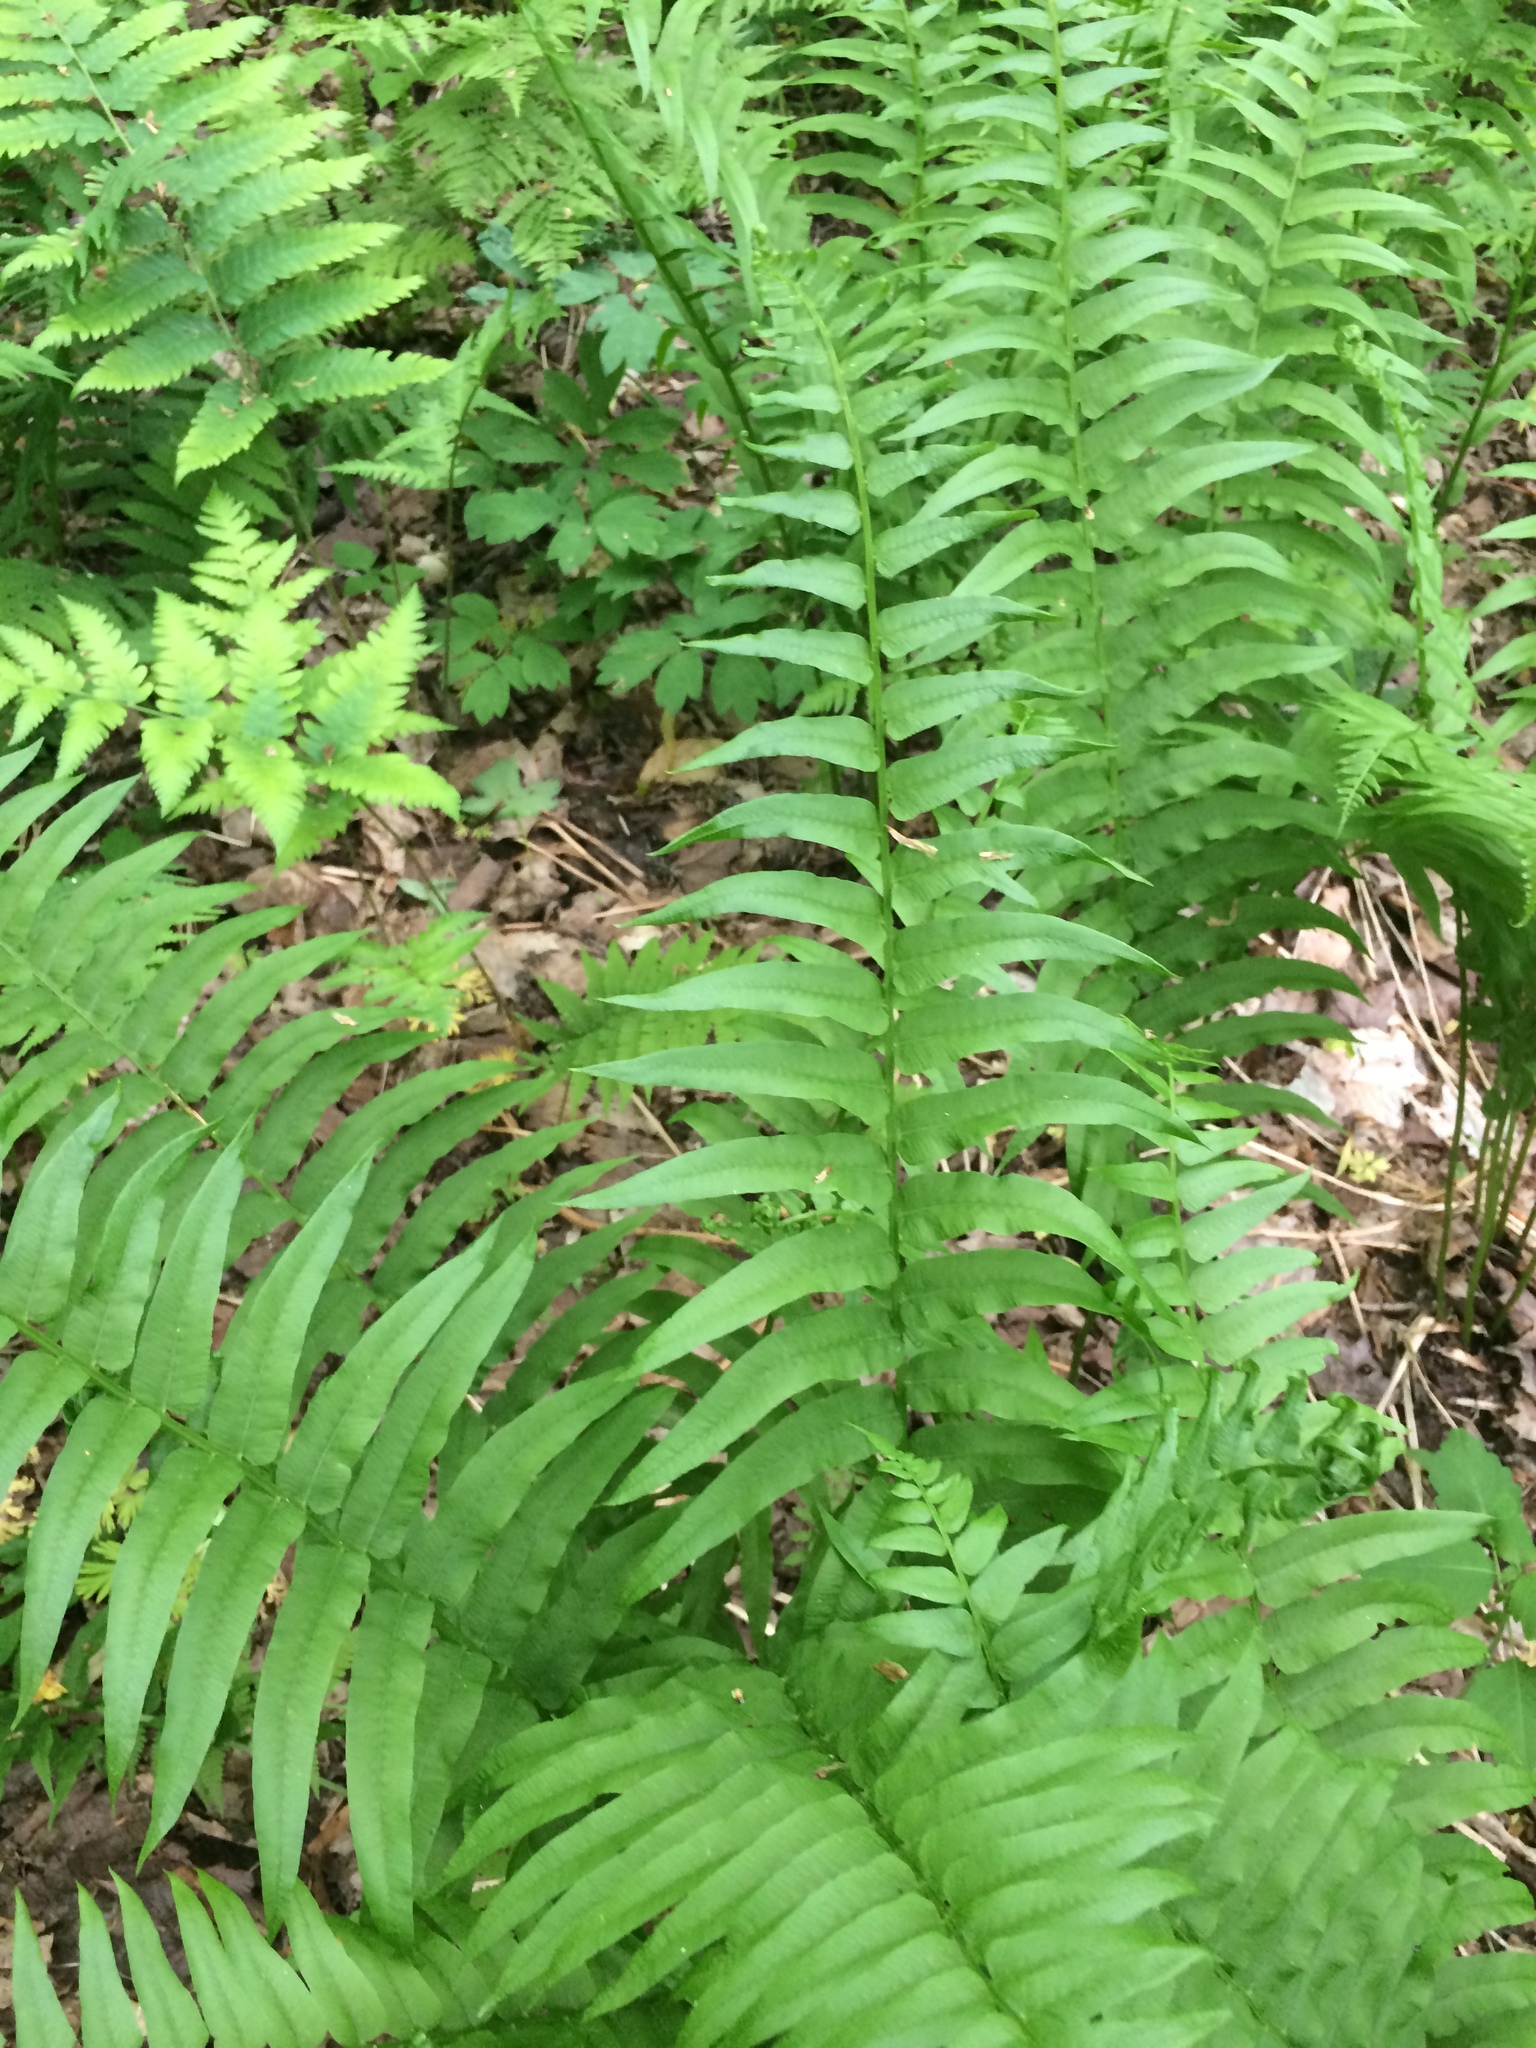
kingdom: Plantae
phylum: Tracheophyta
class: Polypodiopsida
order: Polypodiales
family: Diplaziopsidaceae
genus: Homalosorus
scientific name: Homalosorus pycnocarpos
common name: Glade fern
